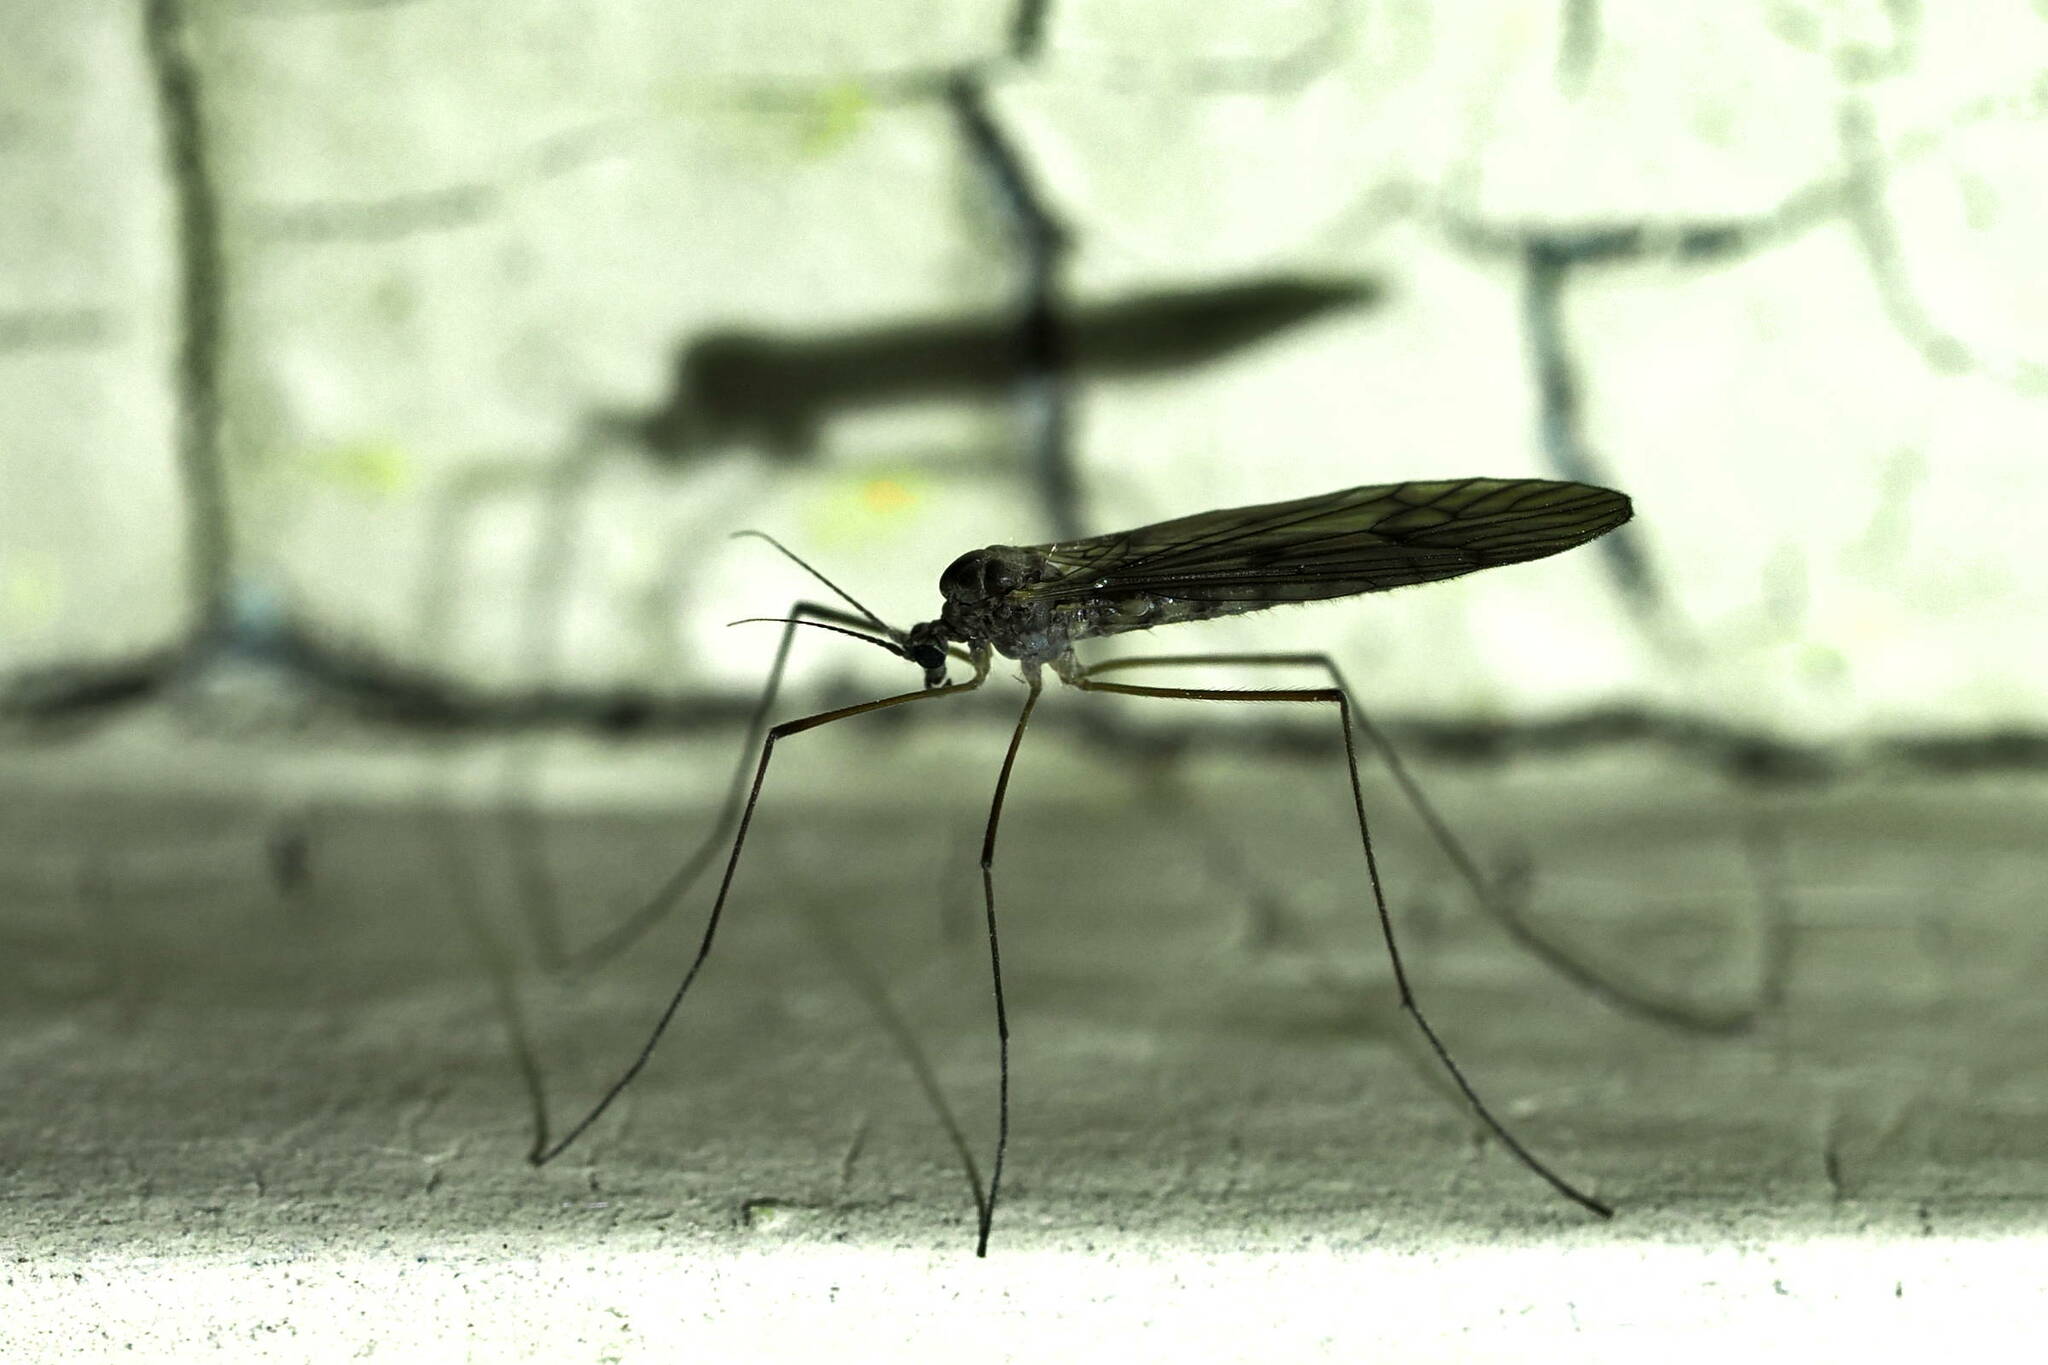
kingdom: Animalia
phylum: Arthropoda
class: Insecta
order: Diptera
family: Trichoceridae
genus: Trichocera
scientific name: Trichocera bimacula
